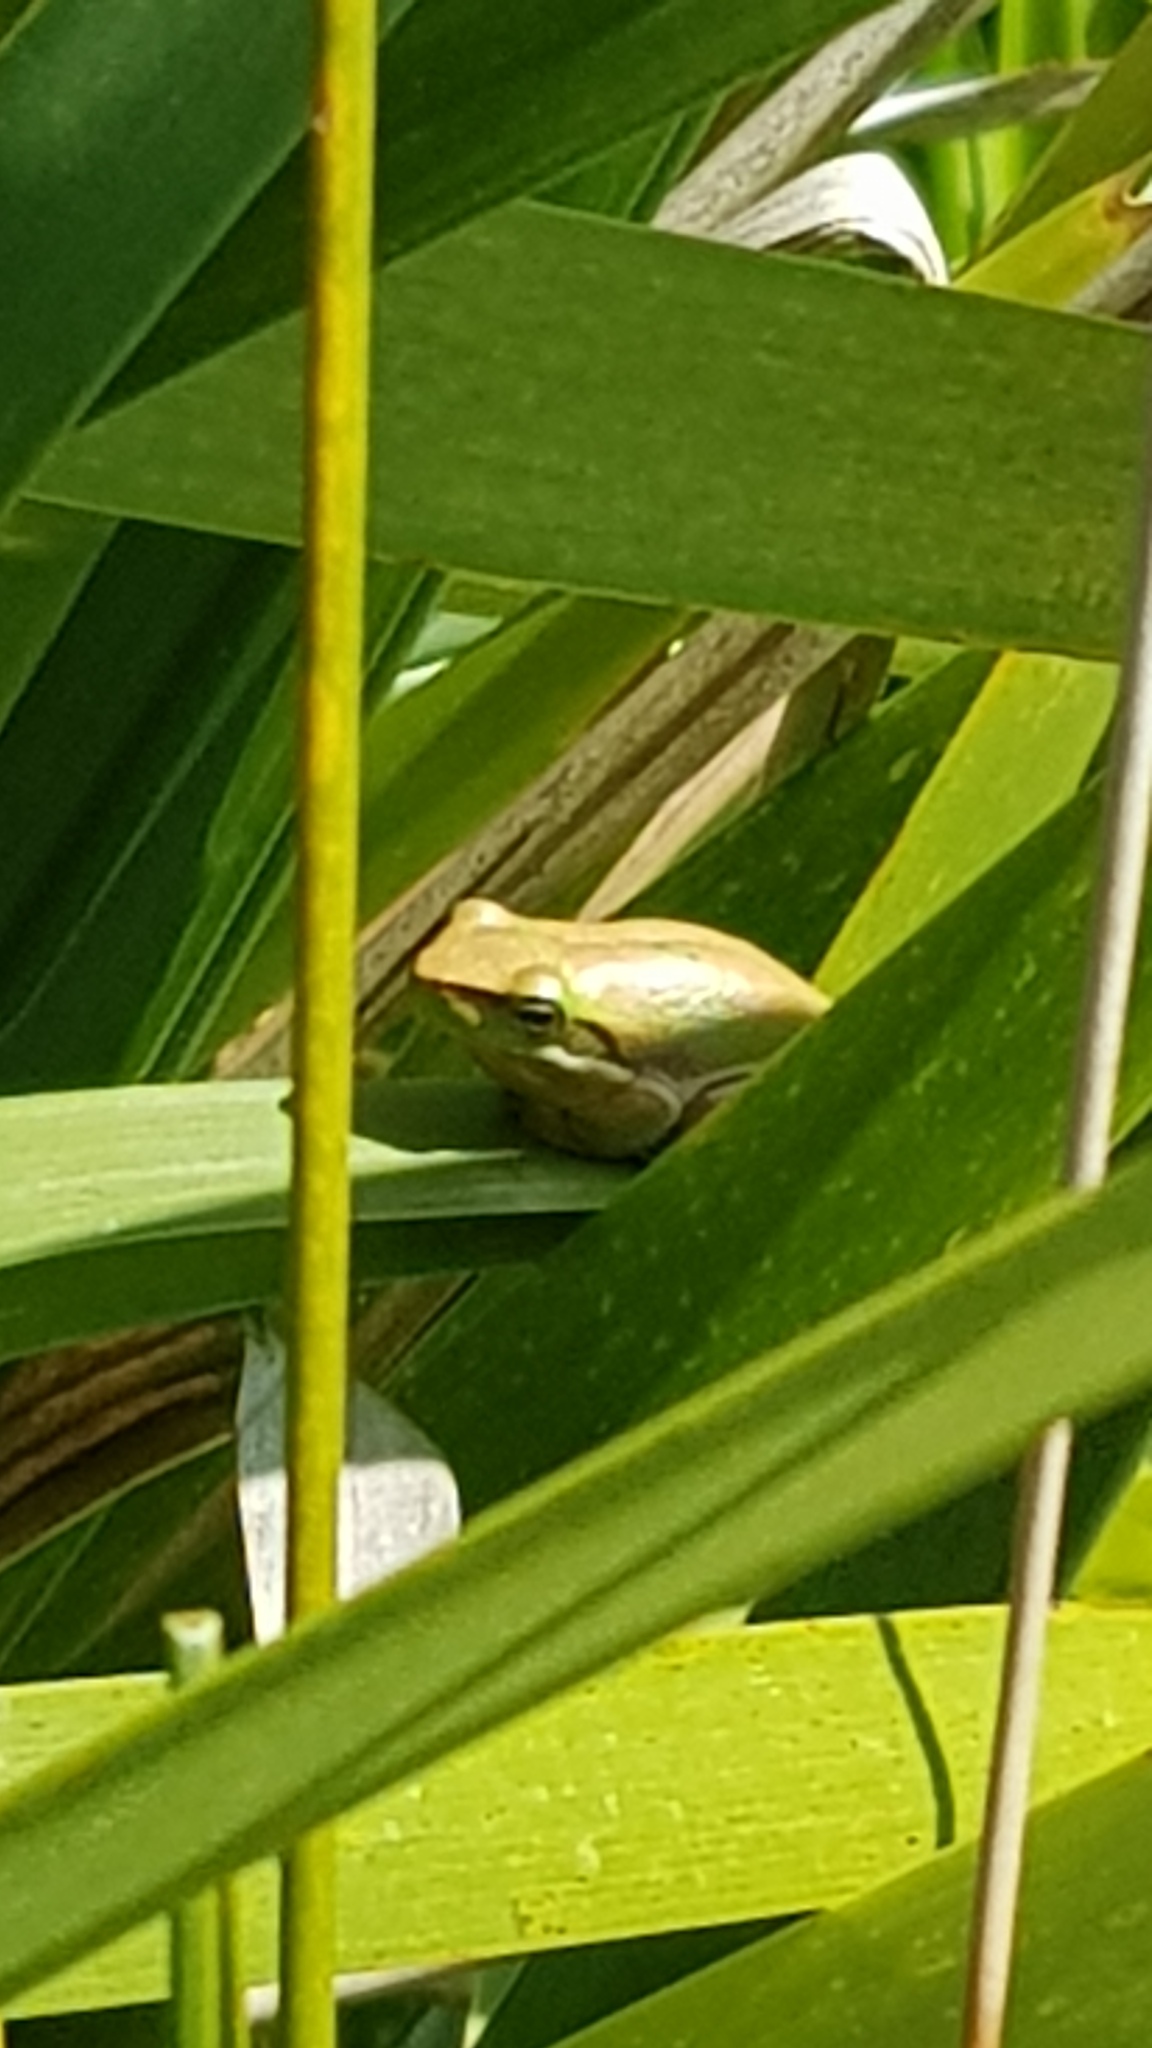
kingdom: Animalia
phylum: Chordata
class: Amphibia
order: Anura
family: Pelodryadidae
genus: Litoria
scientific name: Litoria fallax
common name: Eastern dwarf treefrog
